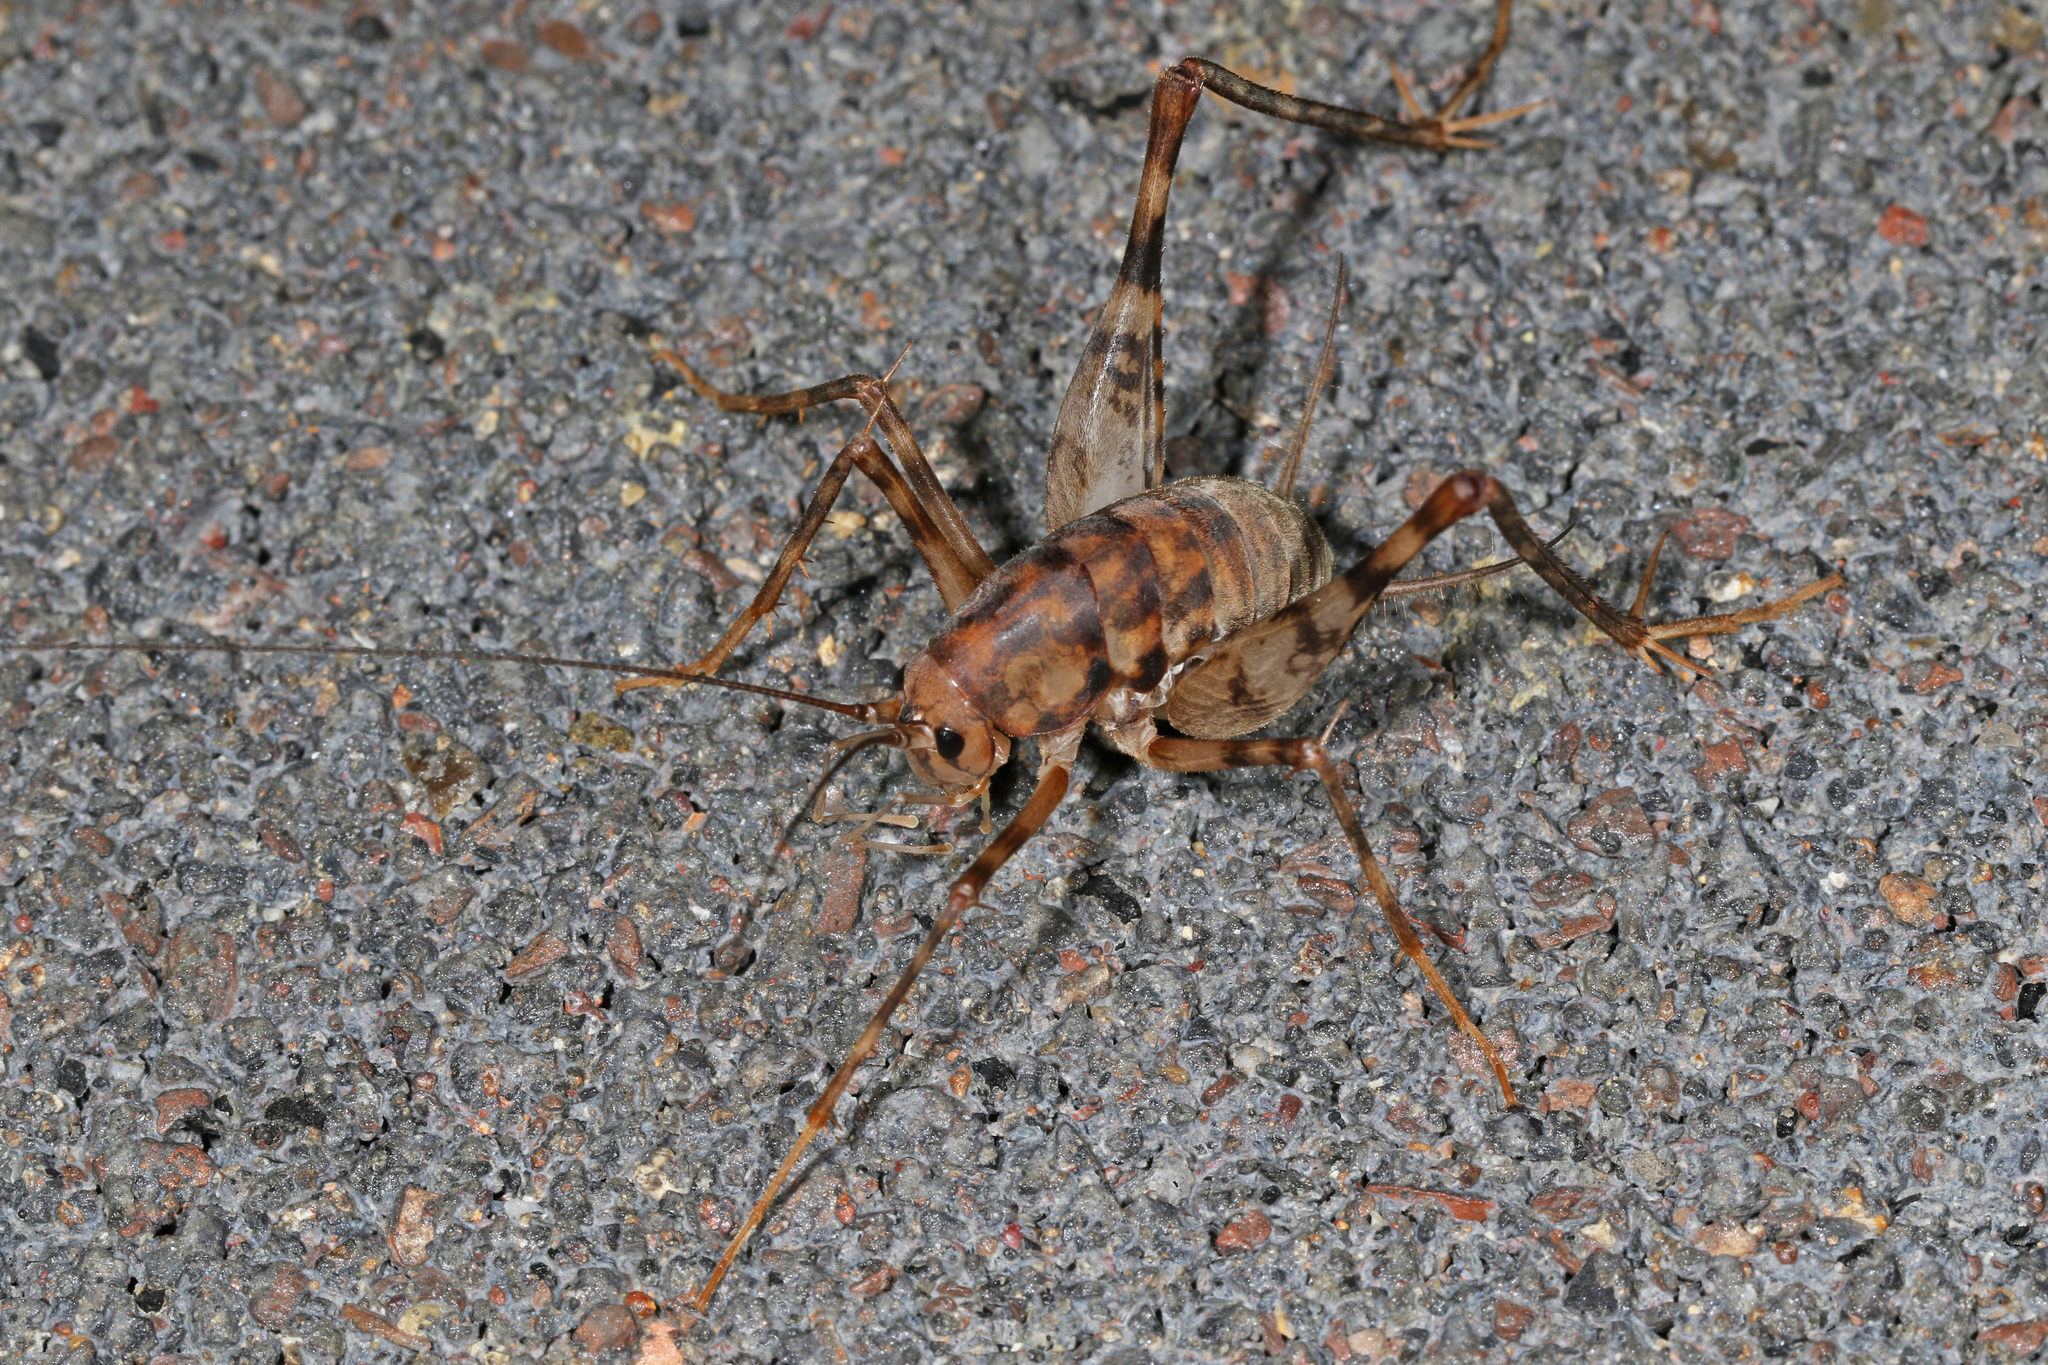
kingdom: Animalia
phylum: Arthropoda
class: Insecta
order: Orthoptera
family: Rhaphidophoridae
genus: Tachycines
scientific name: Tachycines asynamorus
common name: Greenhouse camel cricket
